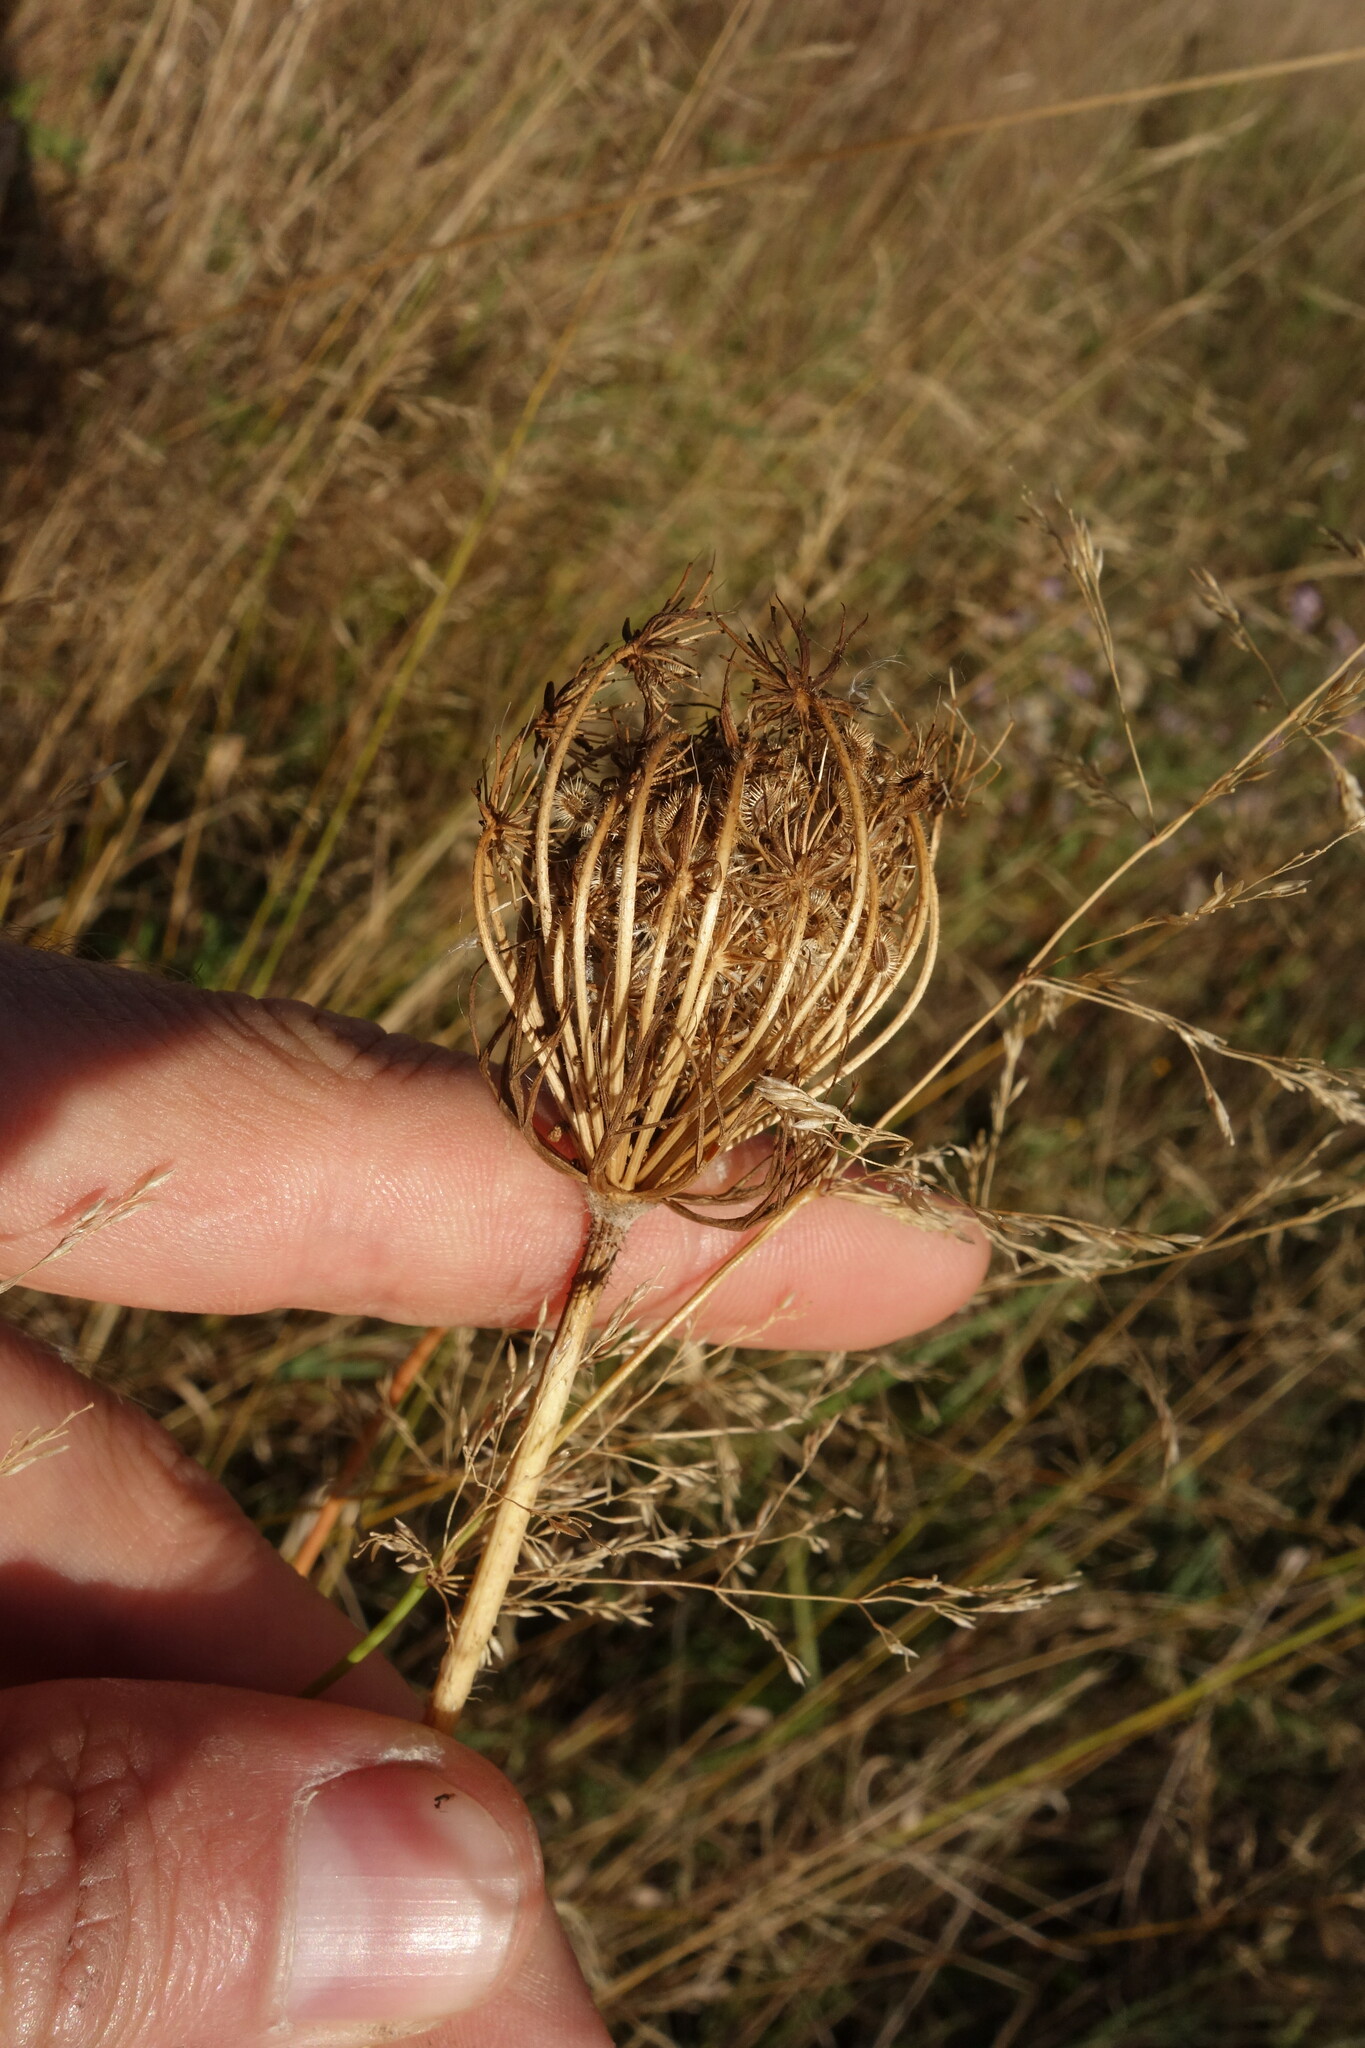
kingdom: Plantae
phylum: Tracheophyta
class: Magnoliopsida
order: Apiales
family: Apiaceae
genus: Daucus
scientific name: Daucus carota
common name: Wild carrot
